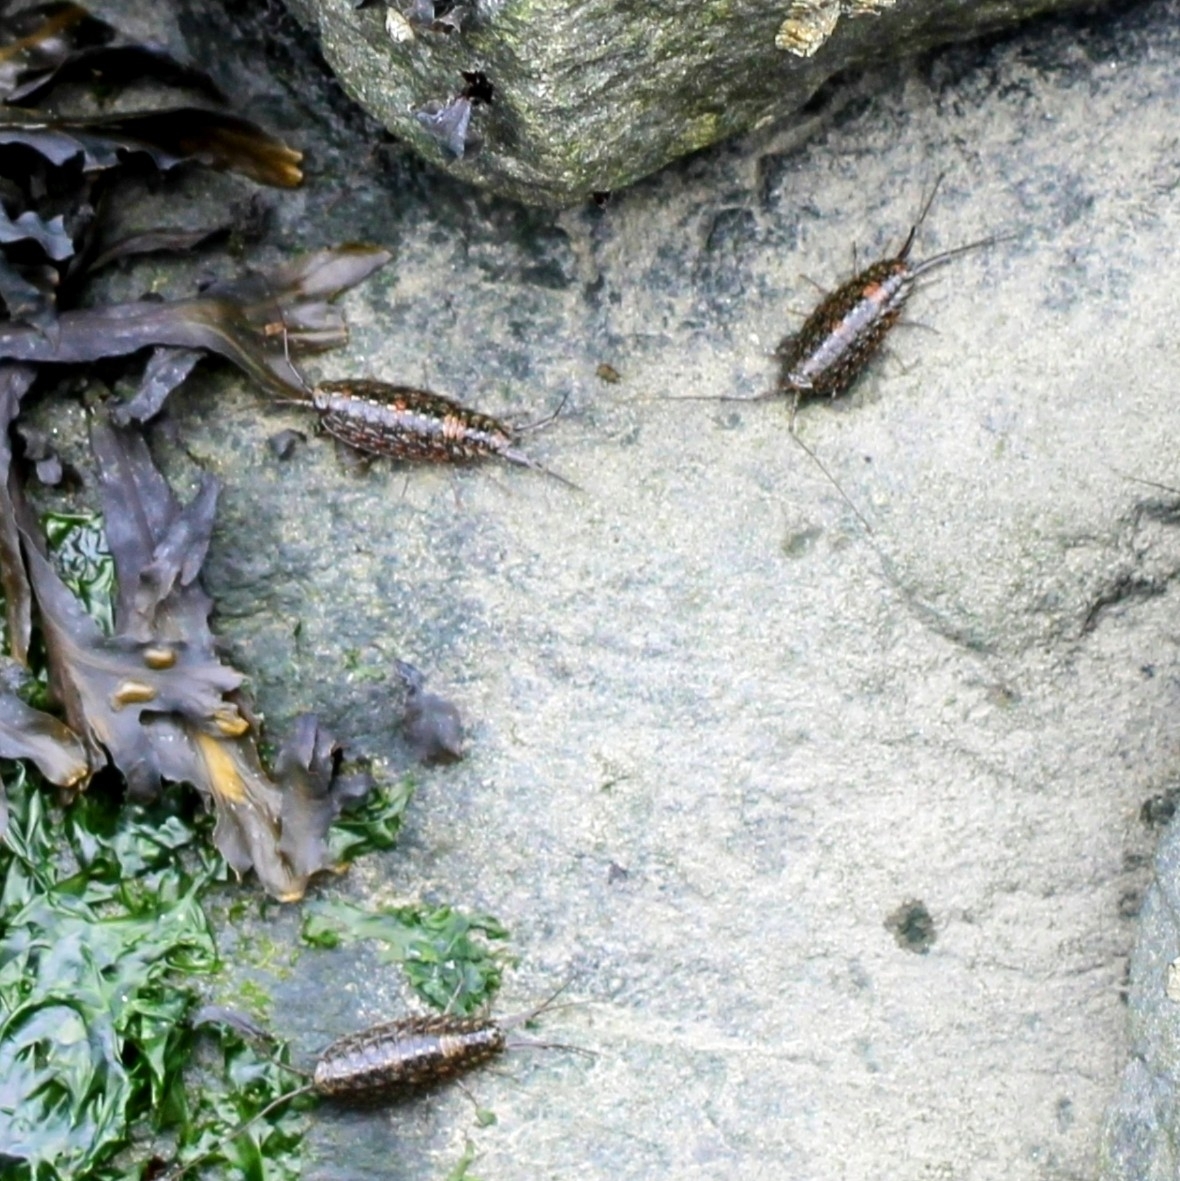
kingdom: Animalia
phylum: Arthropoda
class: Malacostraca
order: Isopoda
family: Ligiidae
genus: Ligia
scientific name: Ligia exotica
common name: Wharf roach
